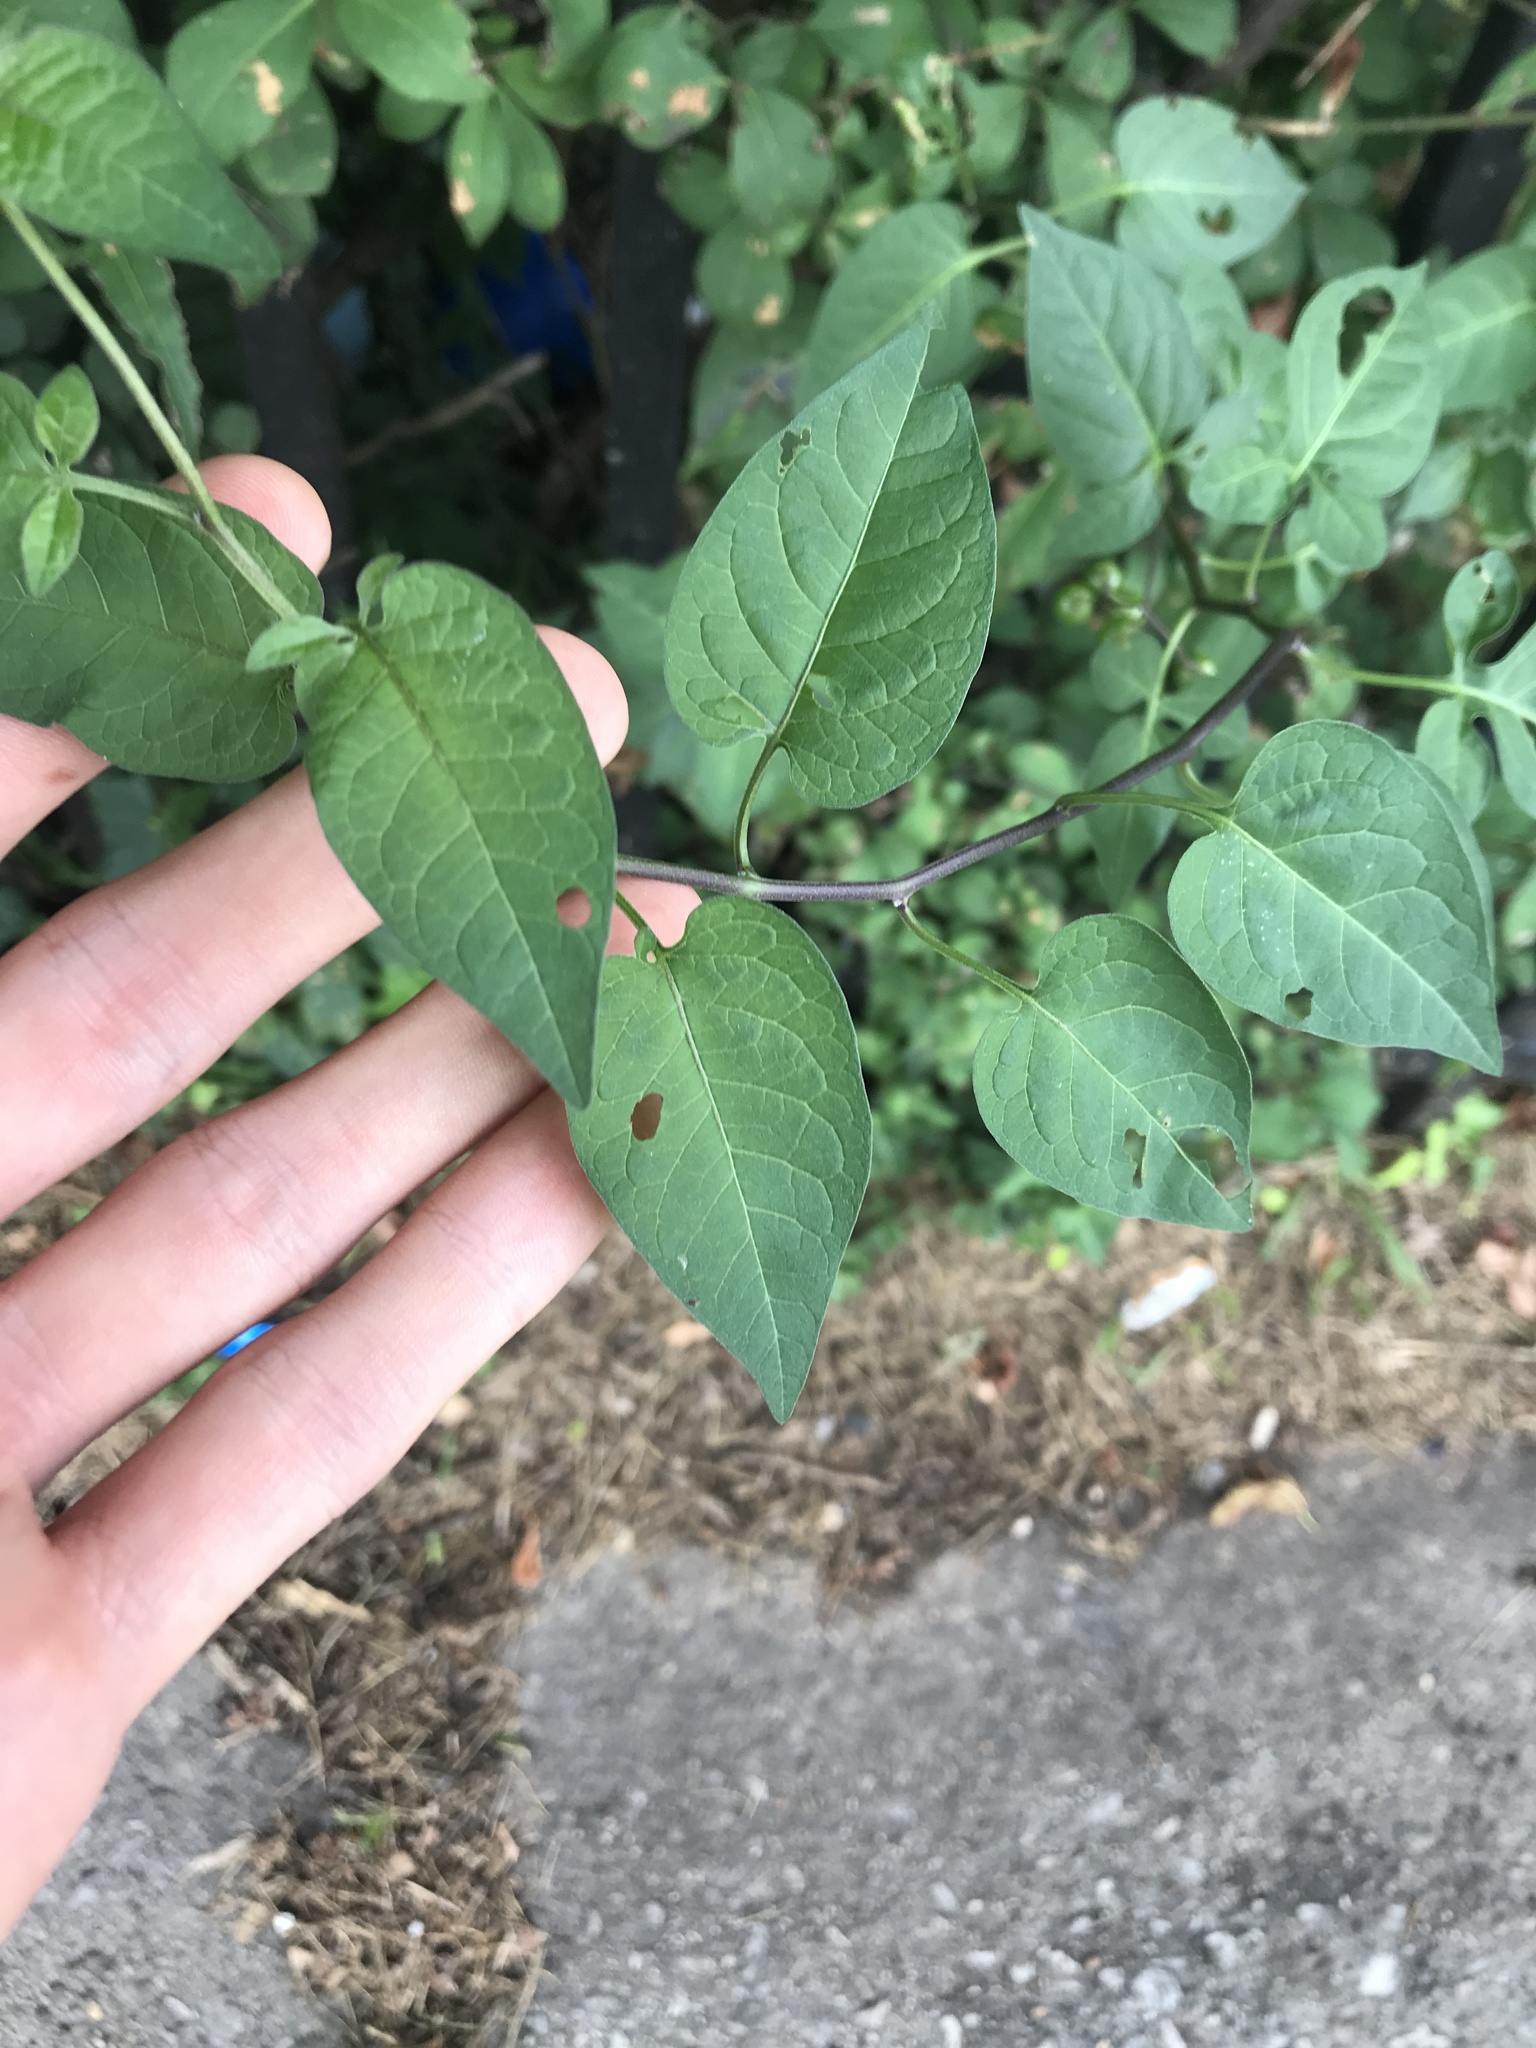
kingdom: Plantae
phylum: Tracheophyta
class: Magnoliopsida
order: Solanales
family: Solanaceae
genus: Solanum
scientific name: Solanum dulcamara
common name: Climbing nightshade
